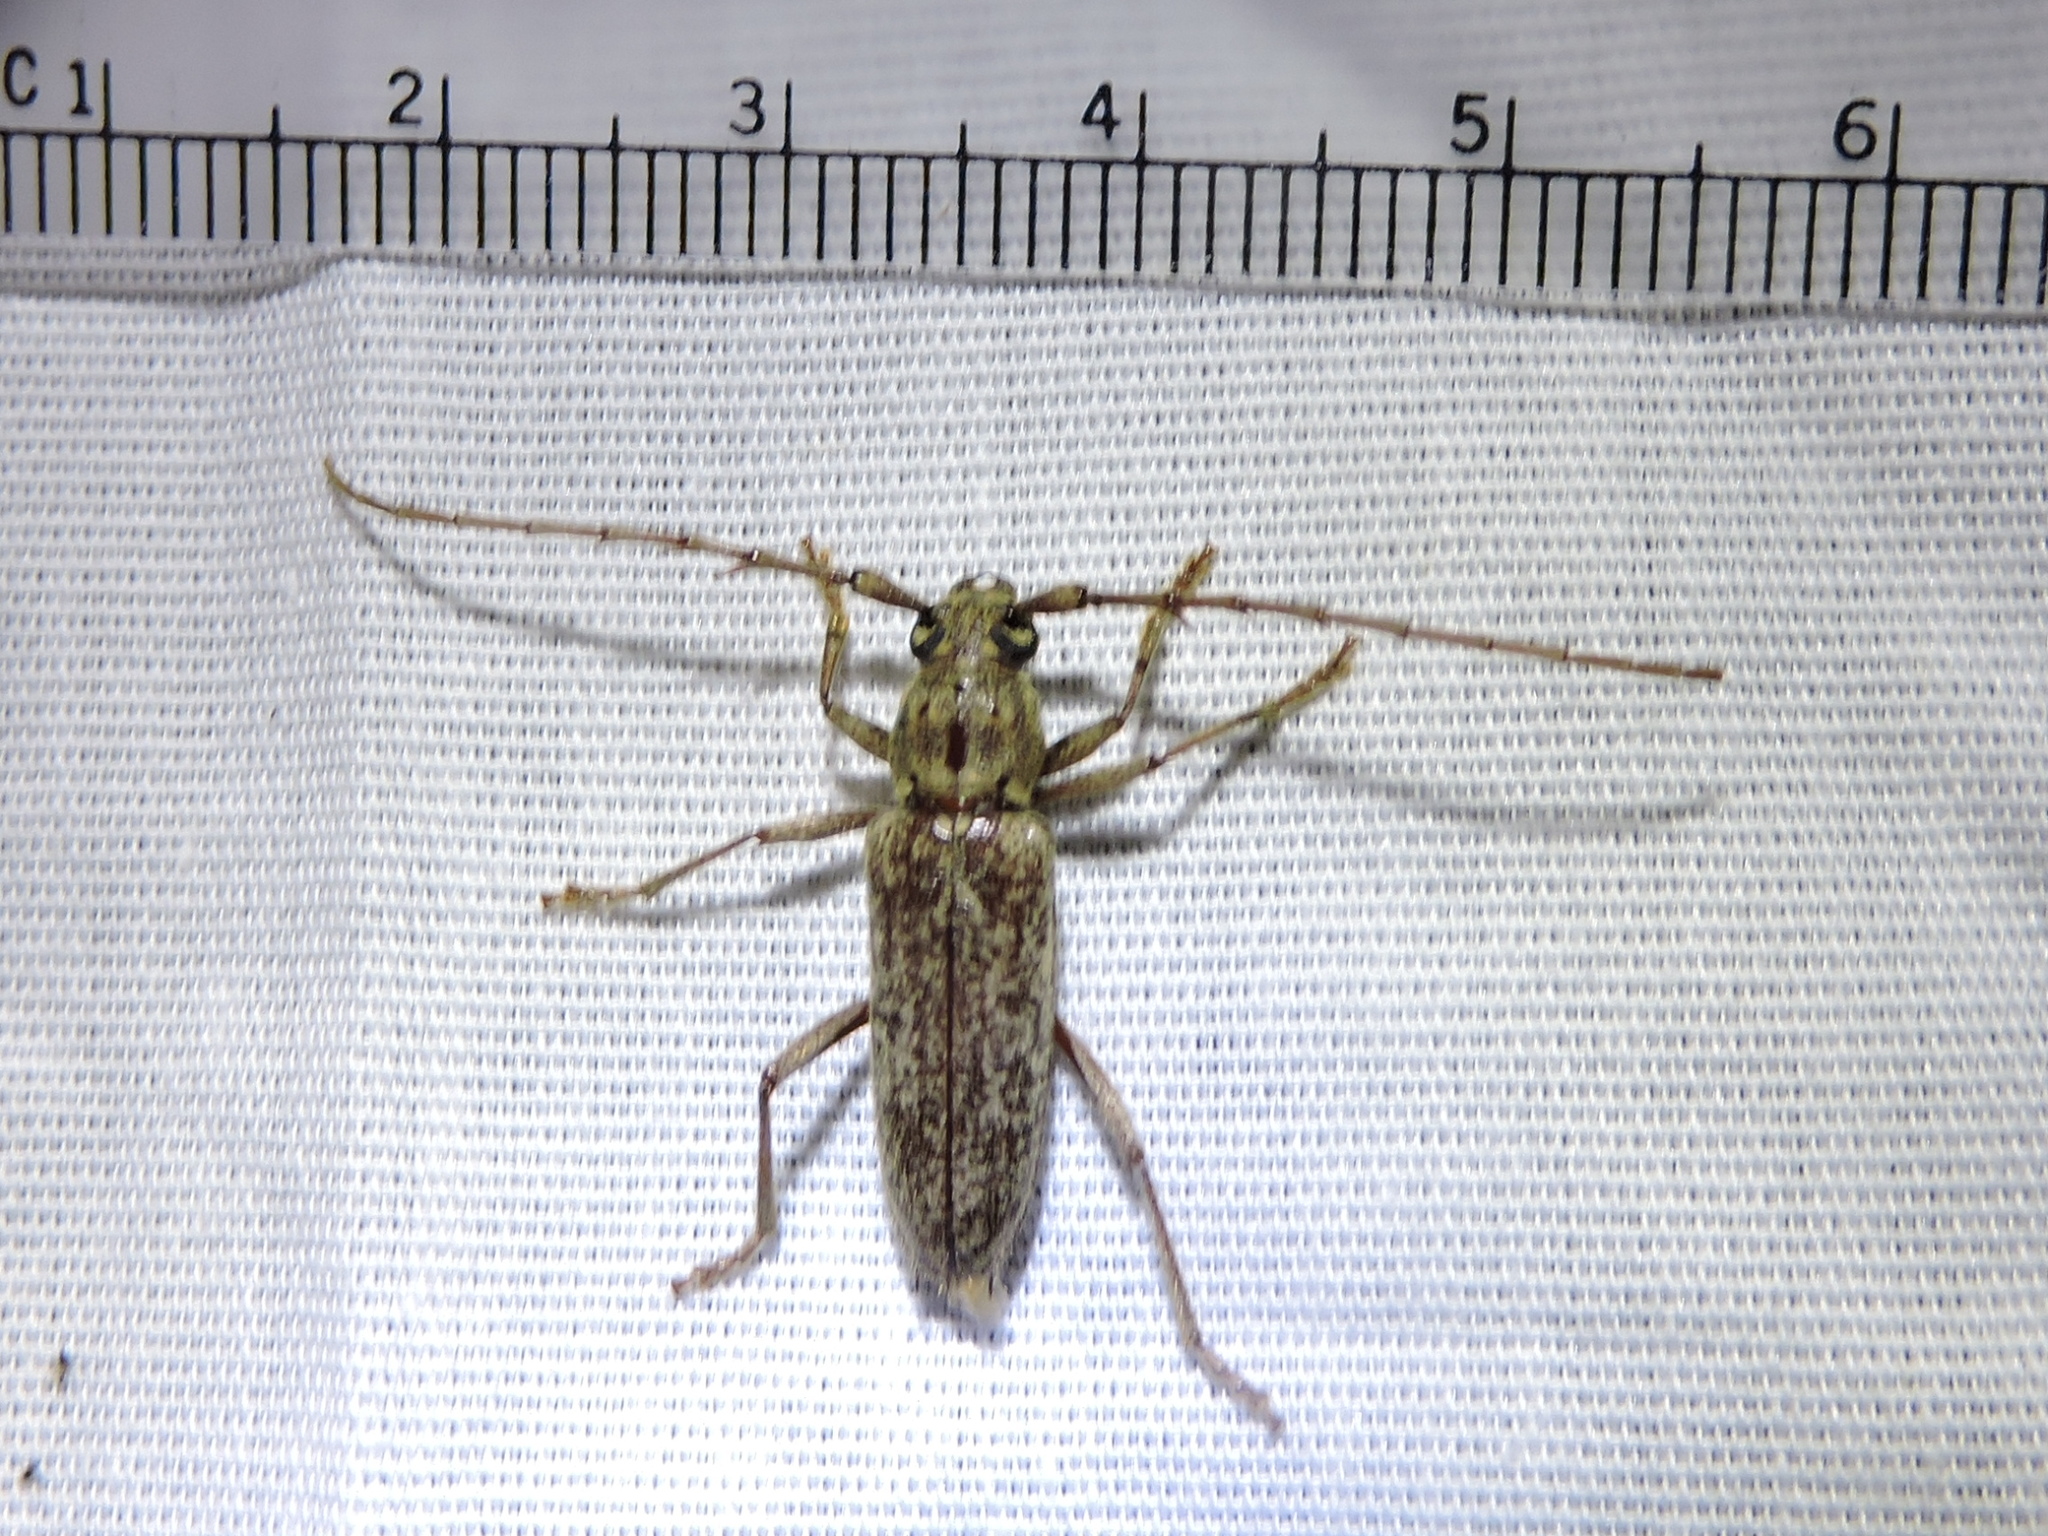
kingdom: Animalia
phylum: Arthropoda
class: Insecta
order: Coleoptera
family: Cerambycidae
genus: Elaphidion
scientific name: Elaphidion mucronatum
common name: Spined oak borer
